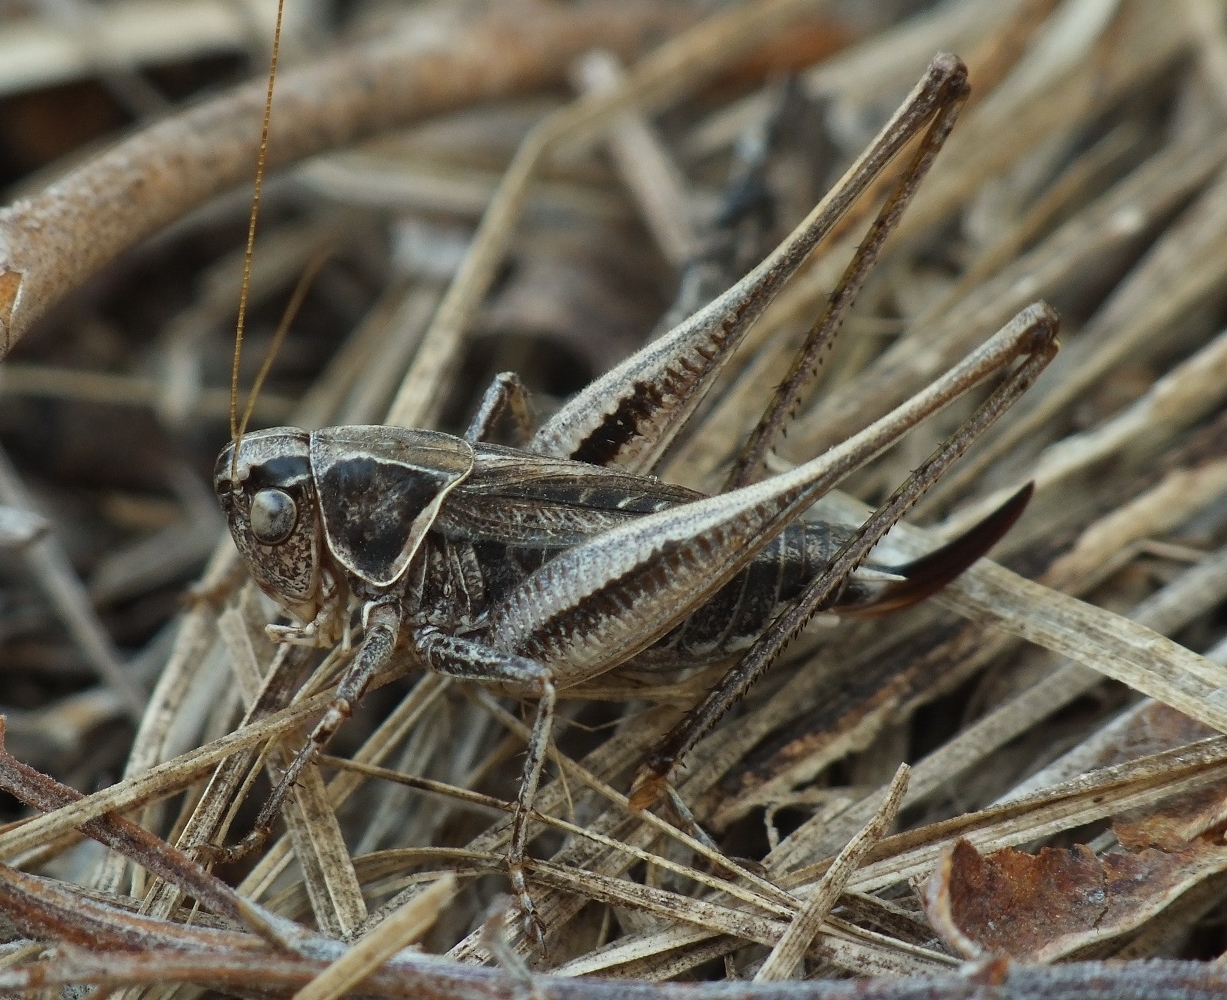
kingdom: Animalia
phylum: Arthropoda
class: Insecta
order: Orthoptera
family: Tettigoniidae
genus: Tessellana
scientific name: Tessellana veyseli
